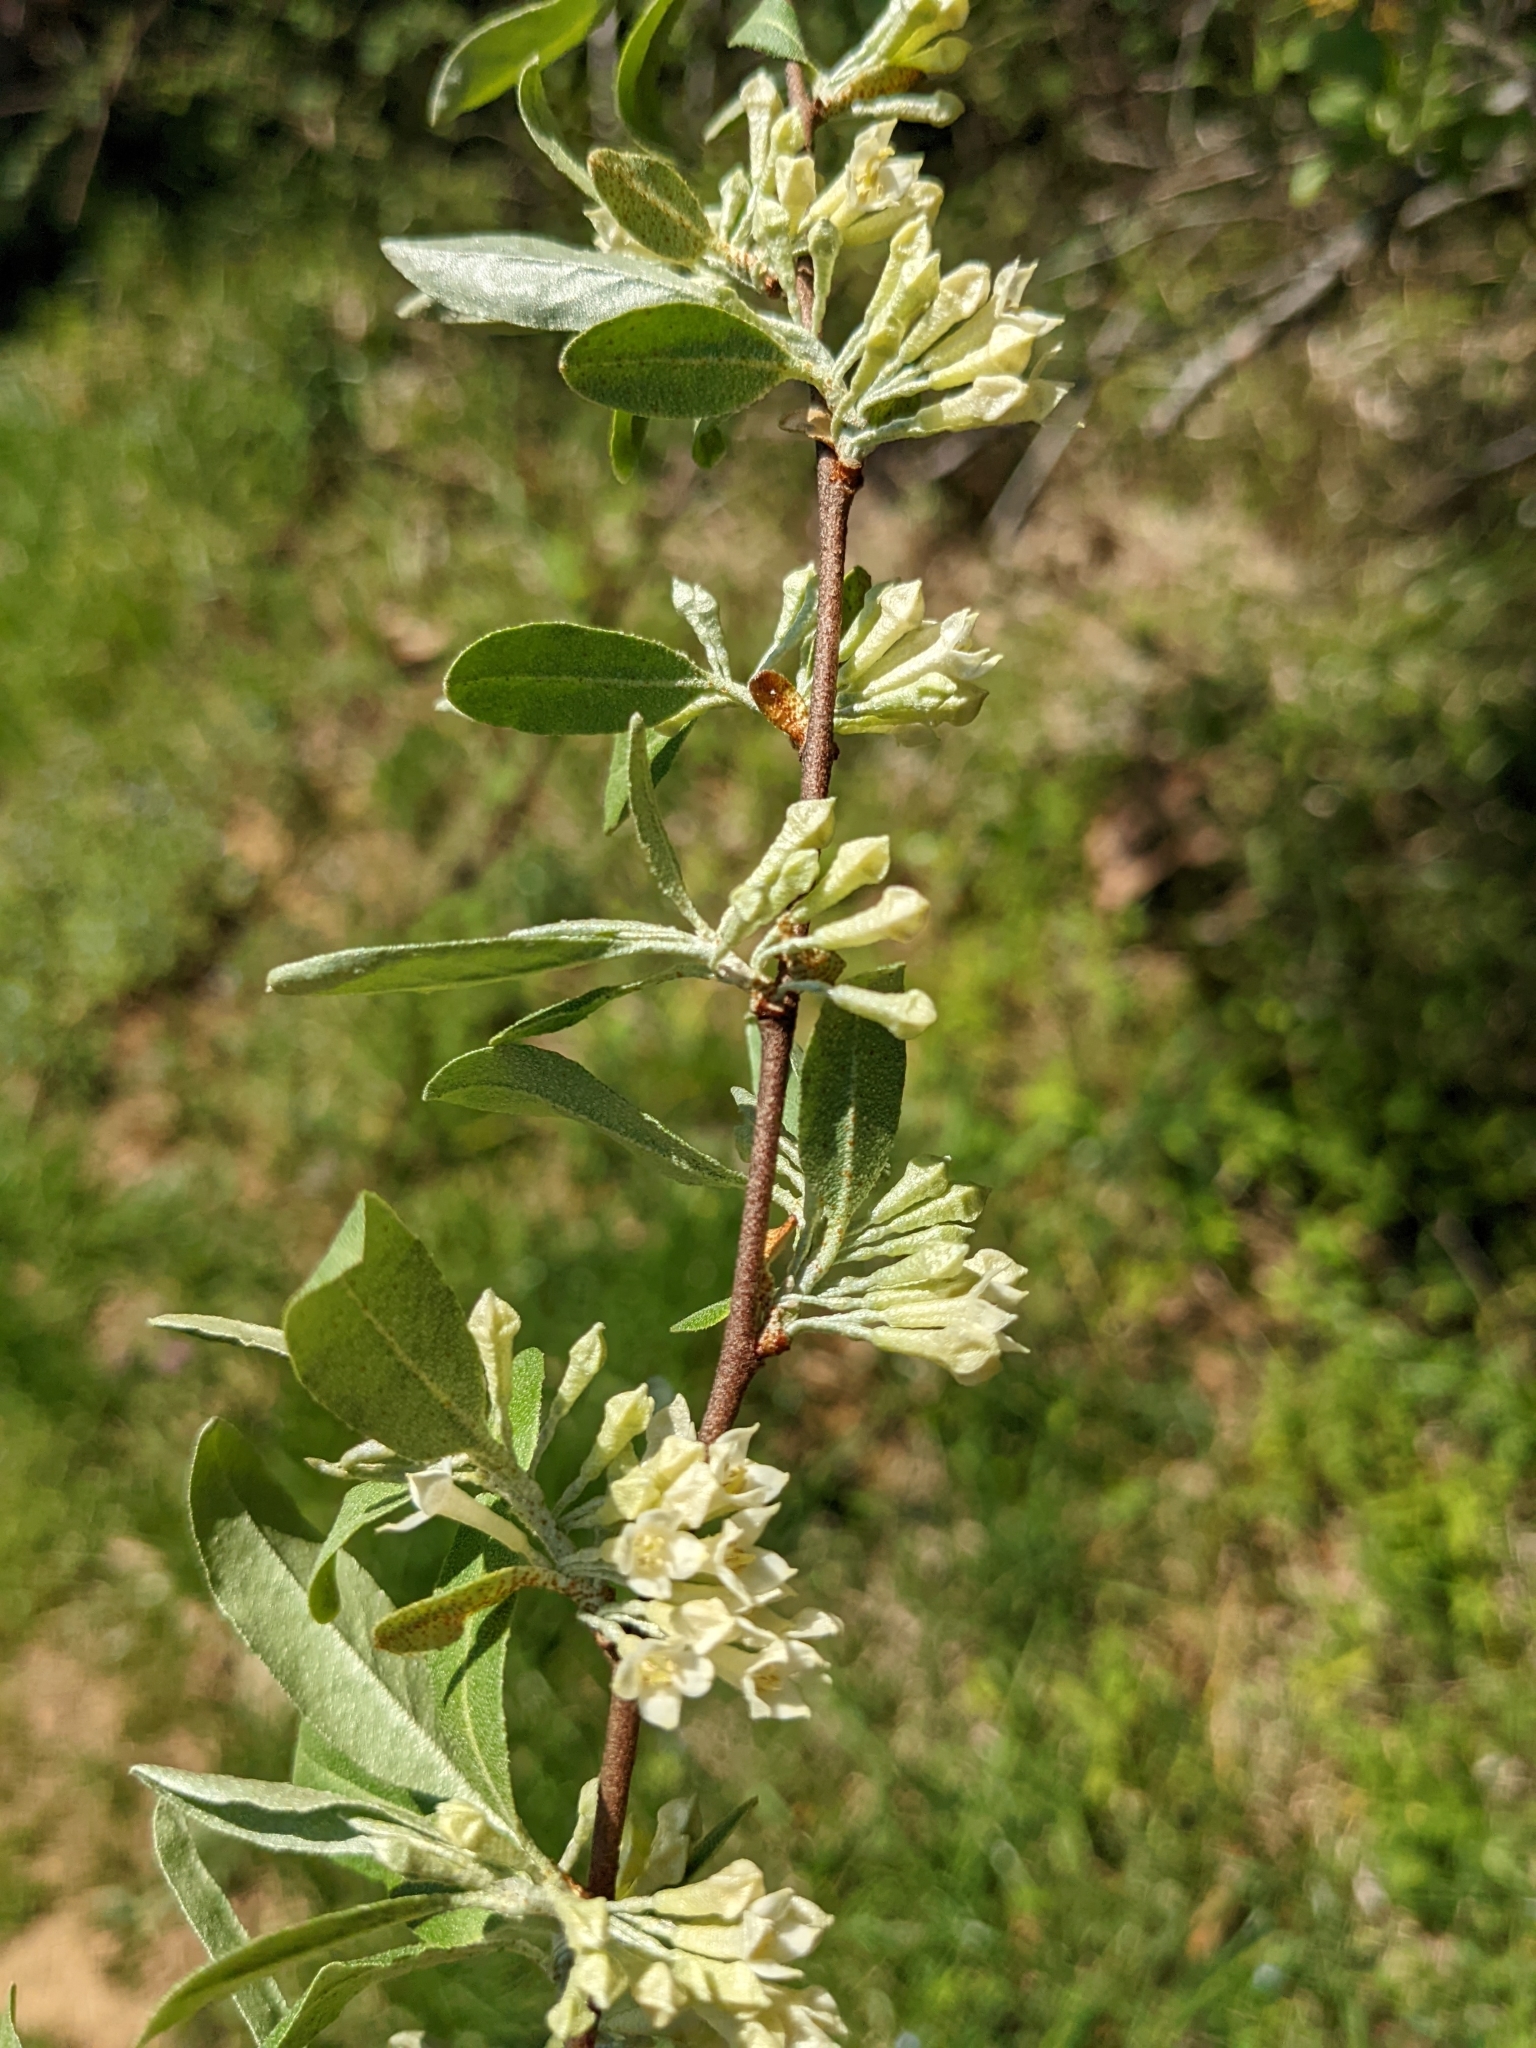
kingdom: Plantae
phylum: Tracheophyta
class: Magnoliopsida
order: Rosales
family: Elaeagnaceae
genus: Elaeagnus
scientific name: Elaeagnus umbellata
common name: Autumn olive
